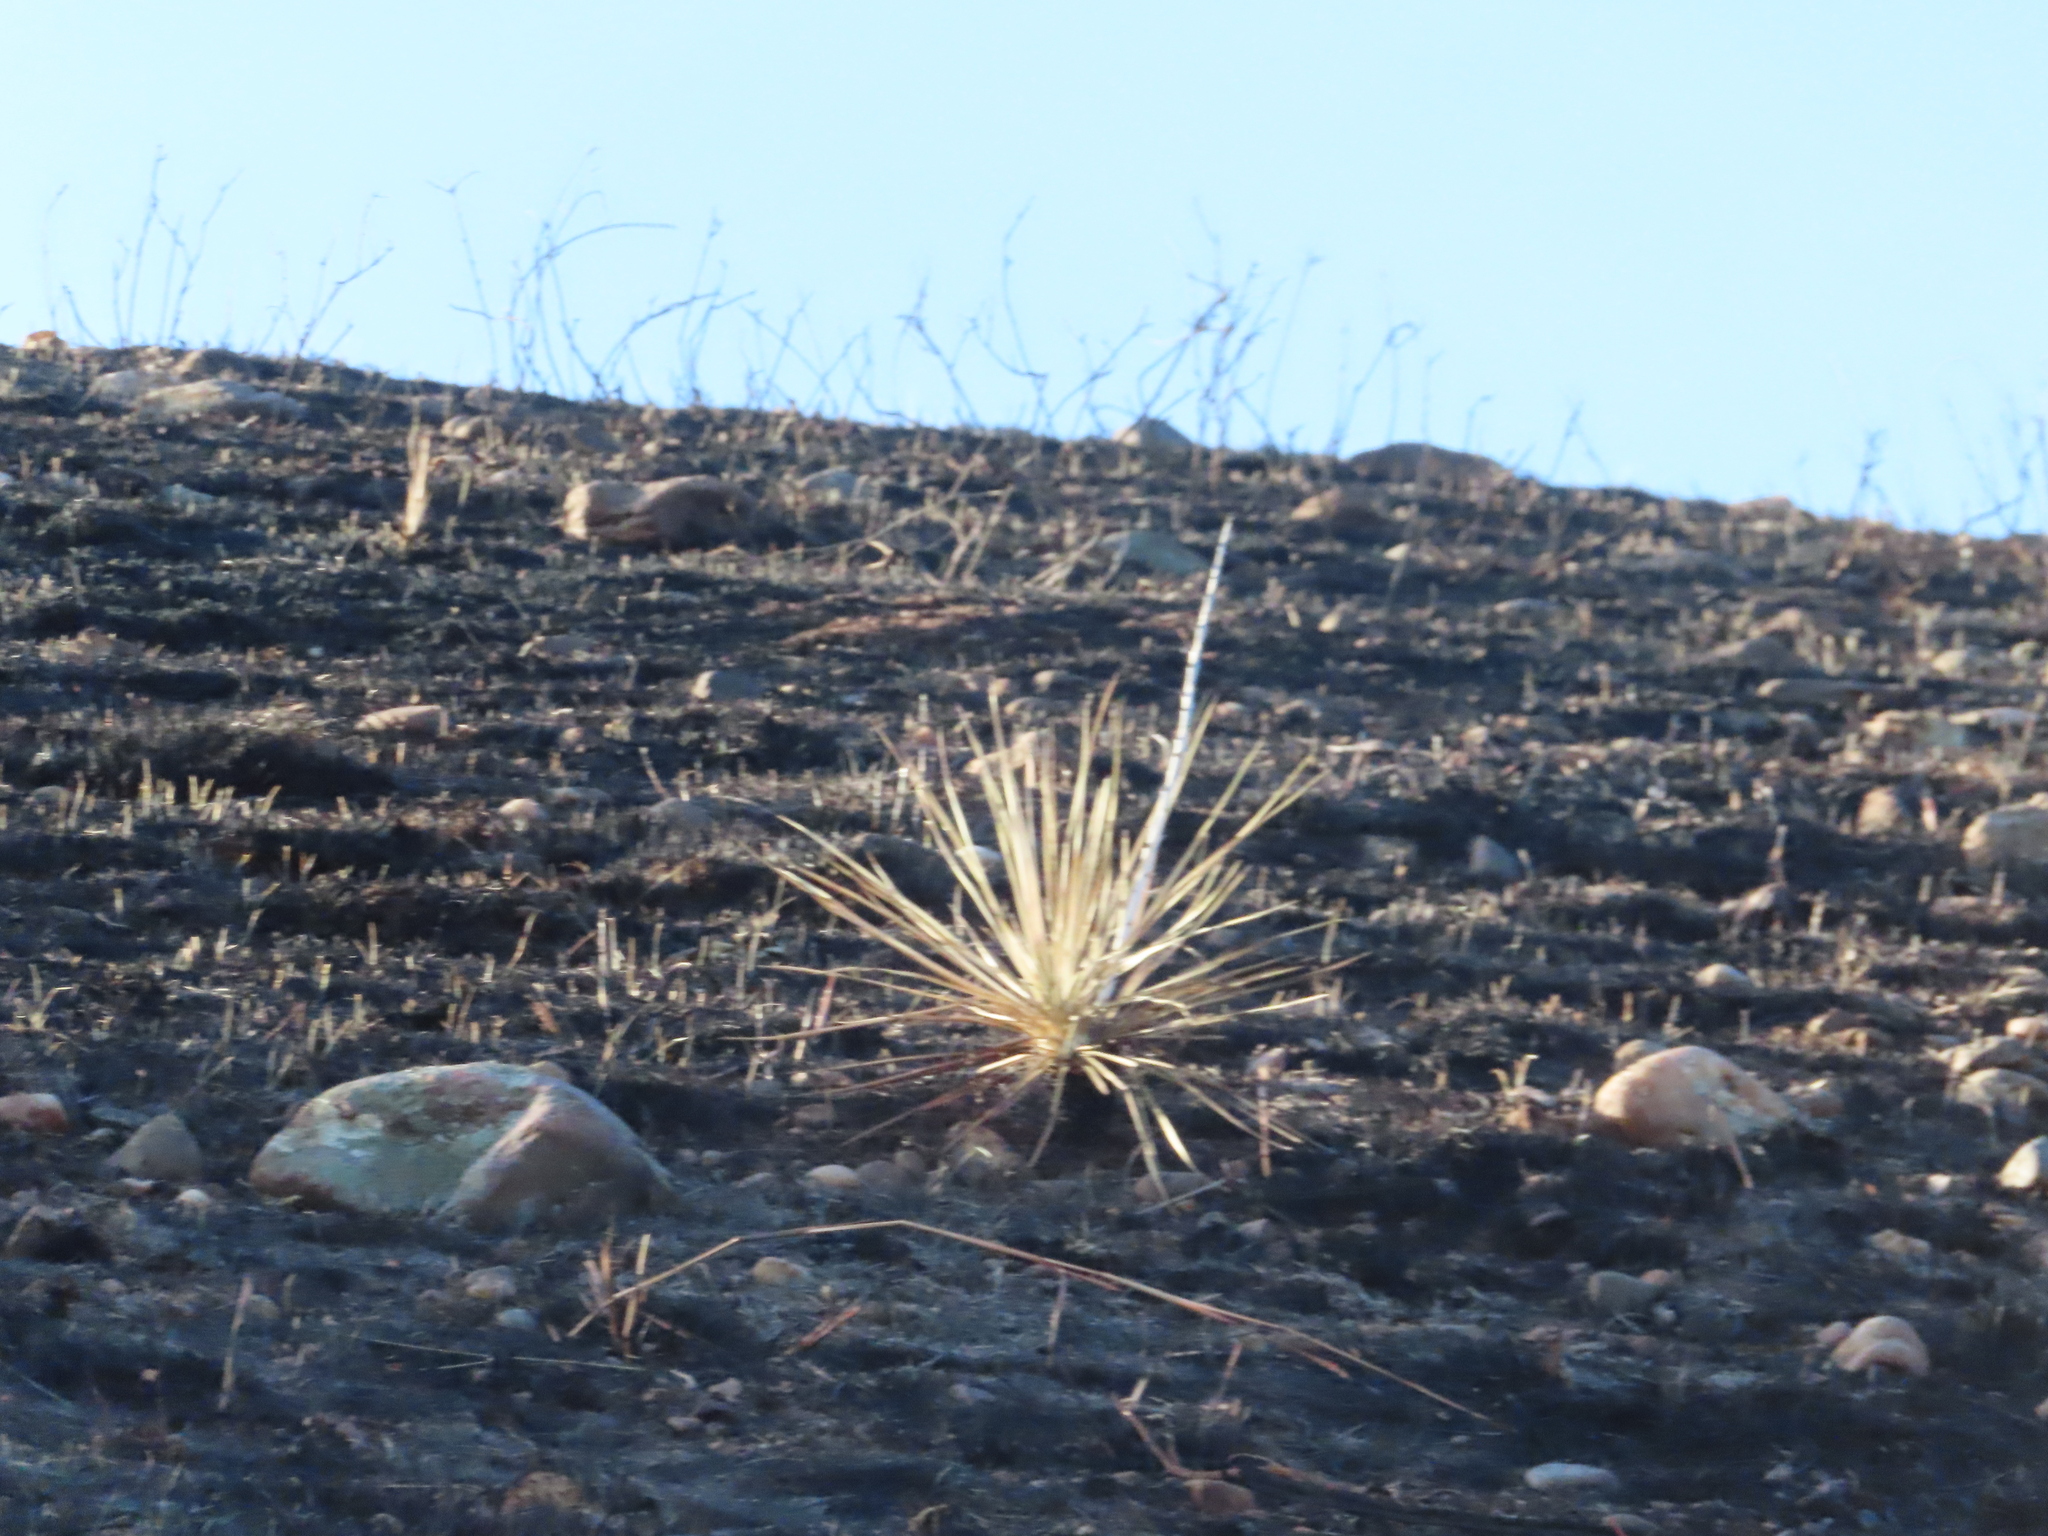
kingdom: Plantae
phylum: Tracheophyta
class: Liliopsida
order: Asparagales
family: Asparagaceae
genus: Yucca
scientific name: Yucca glauca
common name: Great plains yucca
